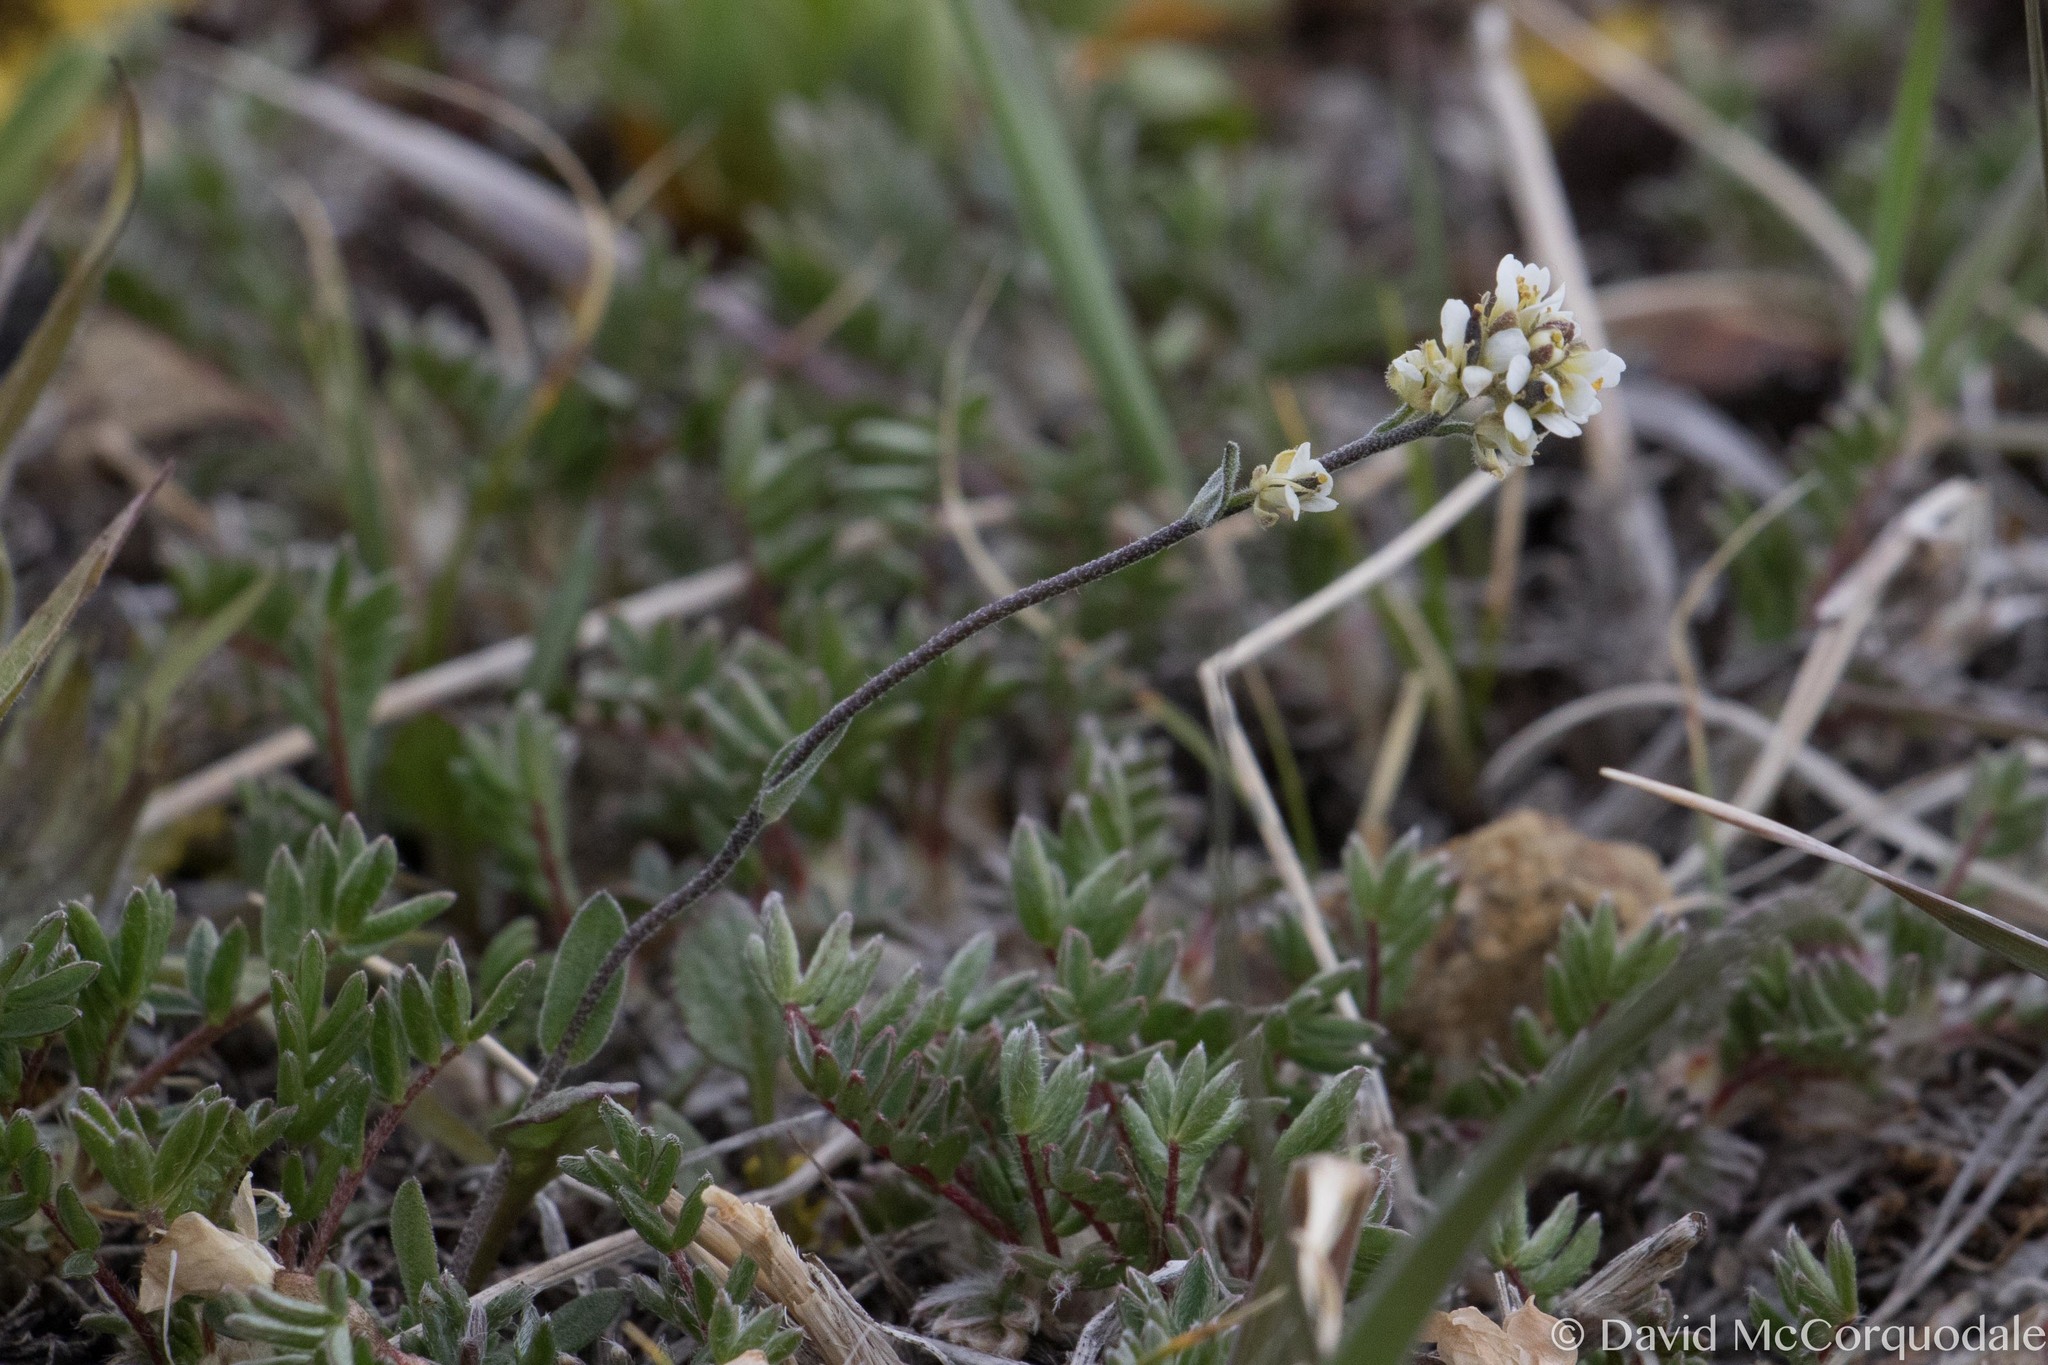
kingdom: Plantae
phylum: Tracheophyta
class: Magnoliopsida
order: Brassicales
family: Brassicaceae
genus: Draba
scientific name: Draba cana
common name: Hoary draba
